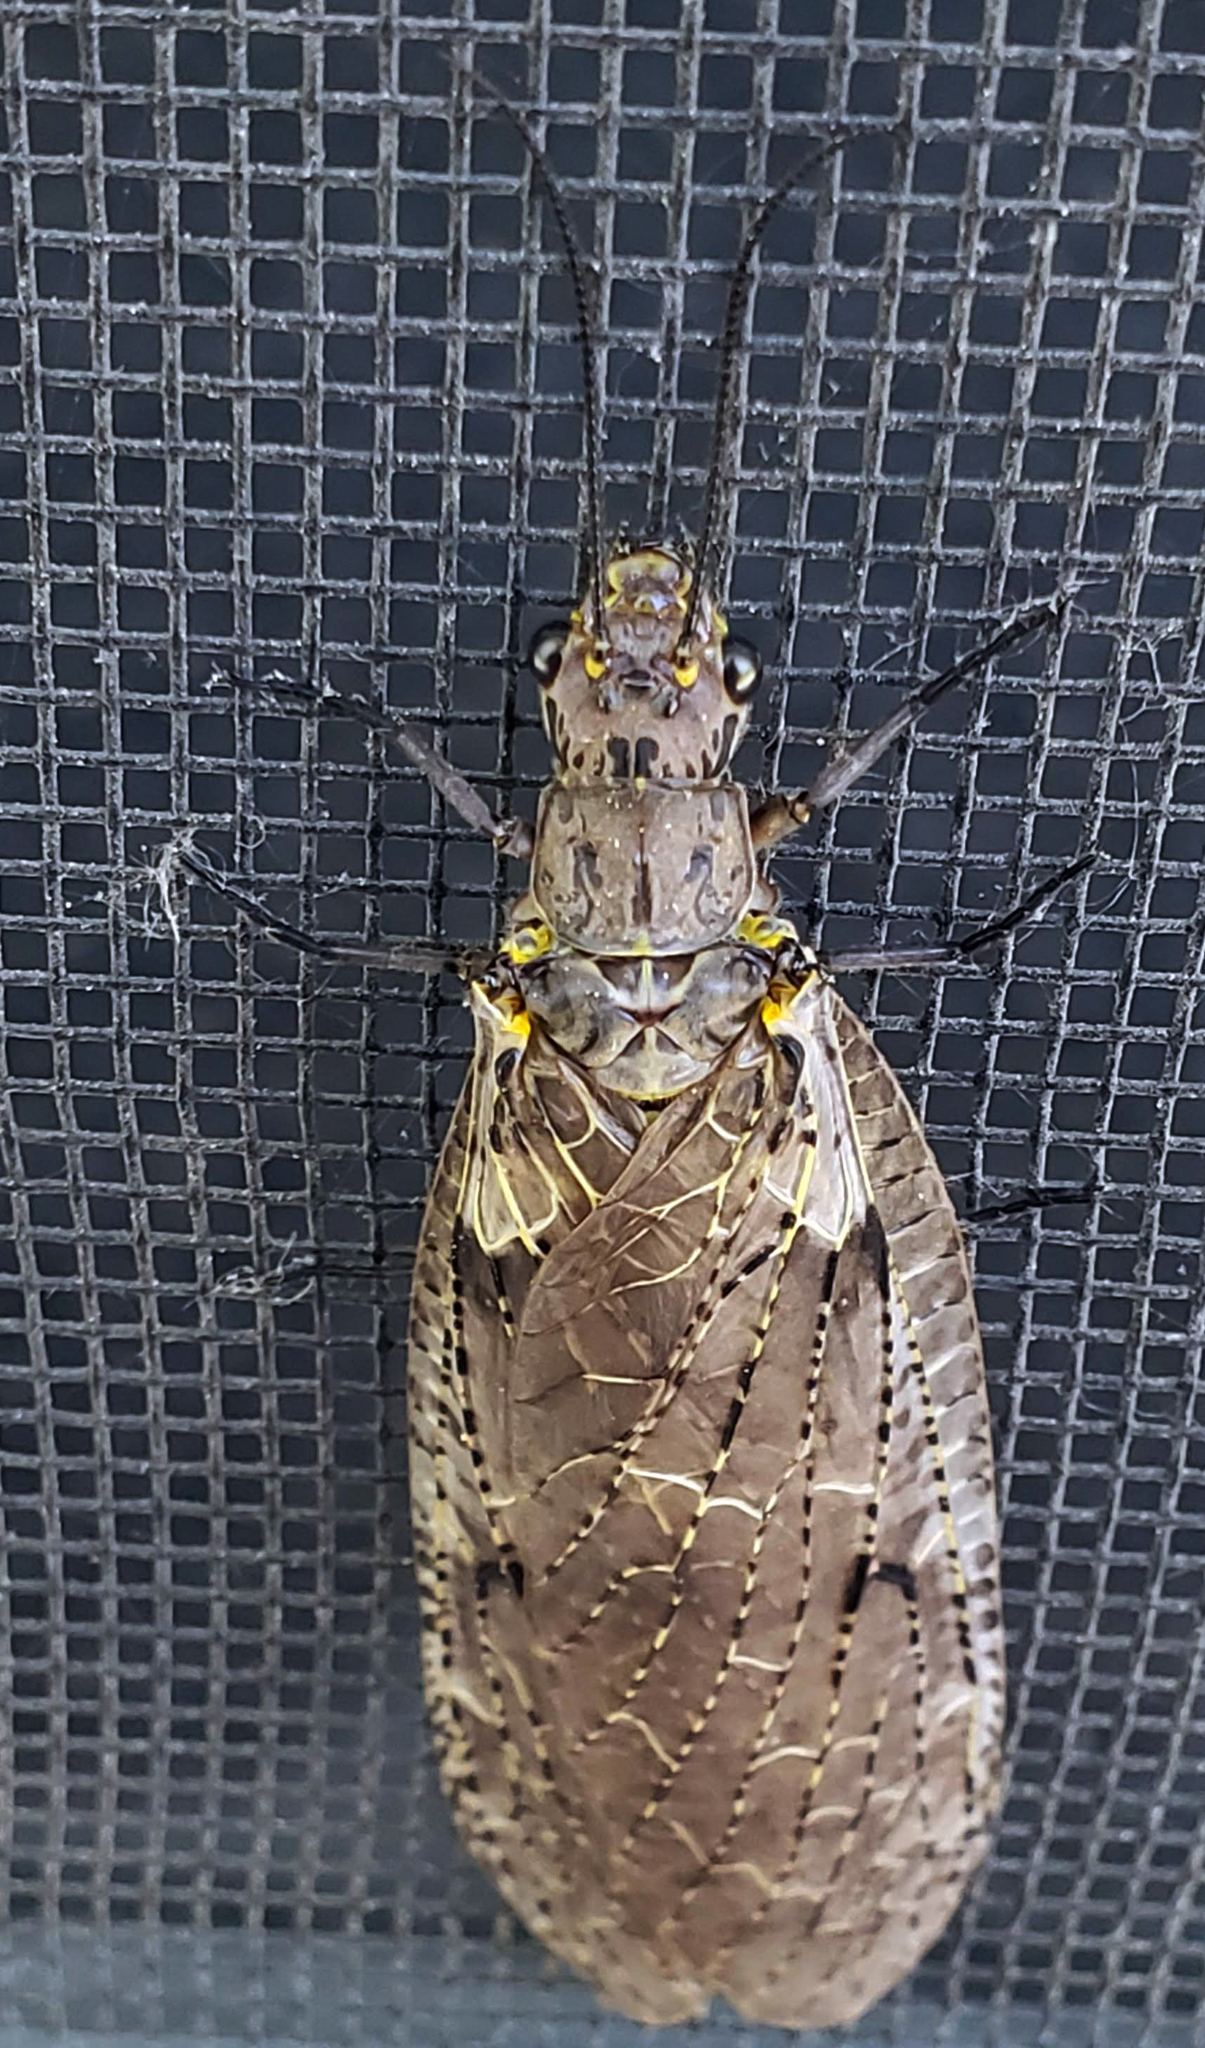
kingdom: Animalia
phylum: Arthropoda
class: Insecta
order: Megaloptera
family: Corydalidae
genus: Chauliodes
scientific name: Chauliodes rastricornis
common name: Spring fishfly
